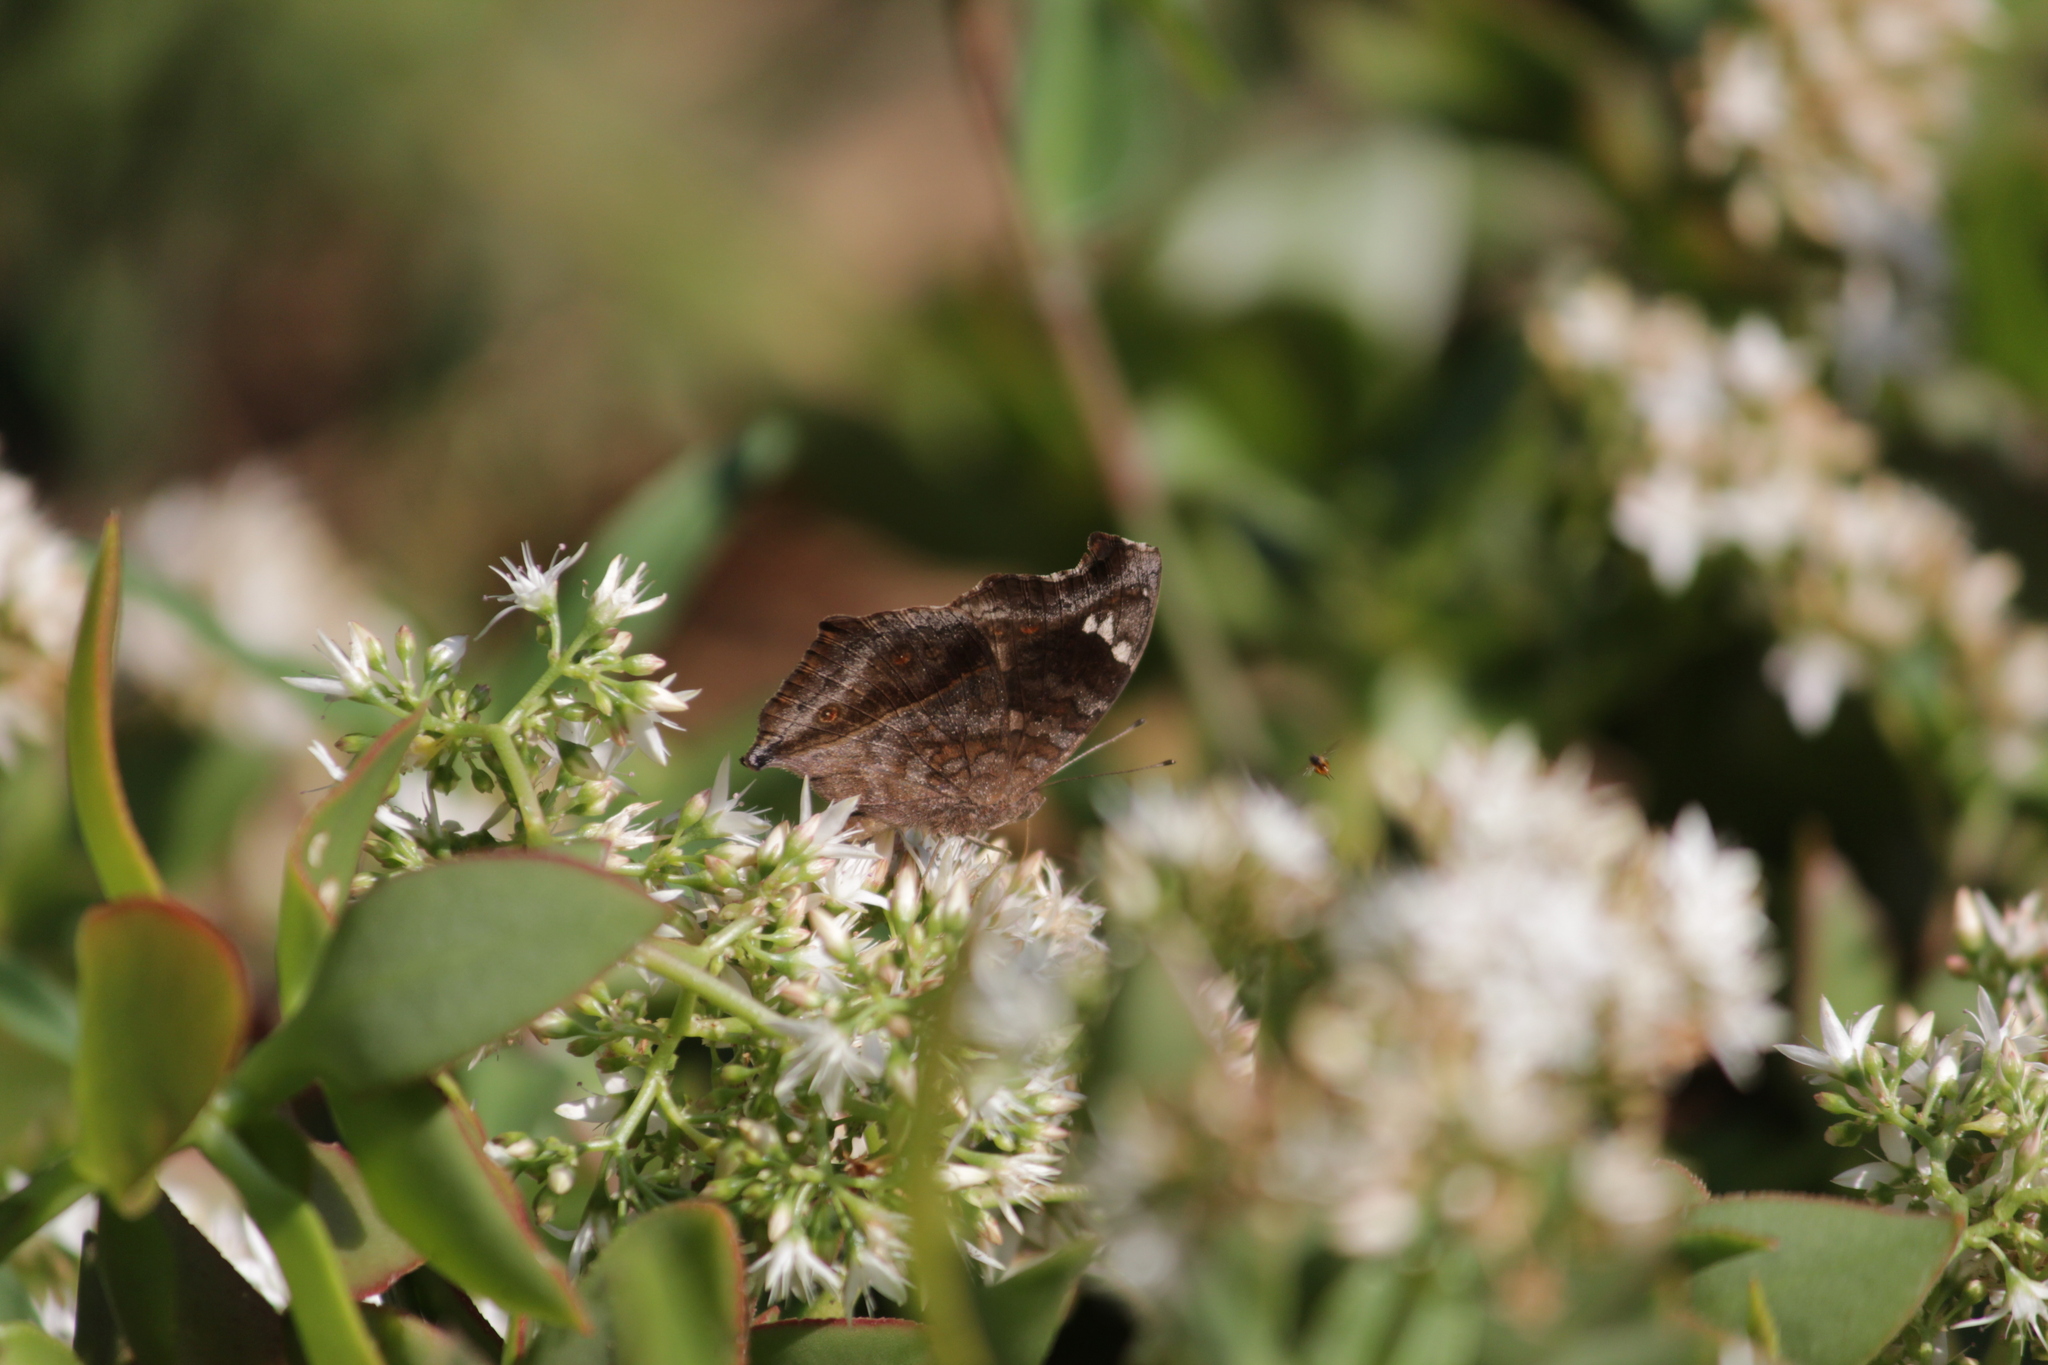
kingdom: Animalia
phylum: Arthropoda
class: Insecta
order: Lepidoptera
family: Nymphalidae
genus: Junonia
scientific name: Junonia natalica
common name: Brown pansy
